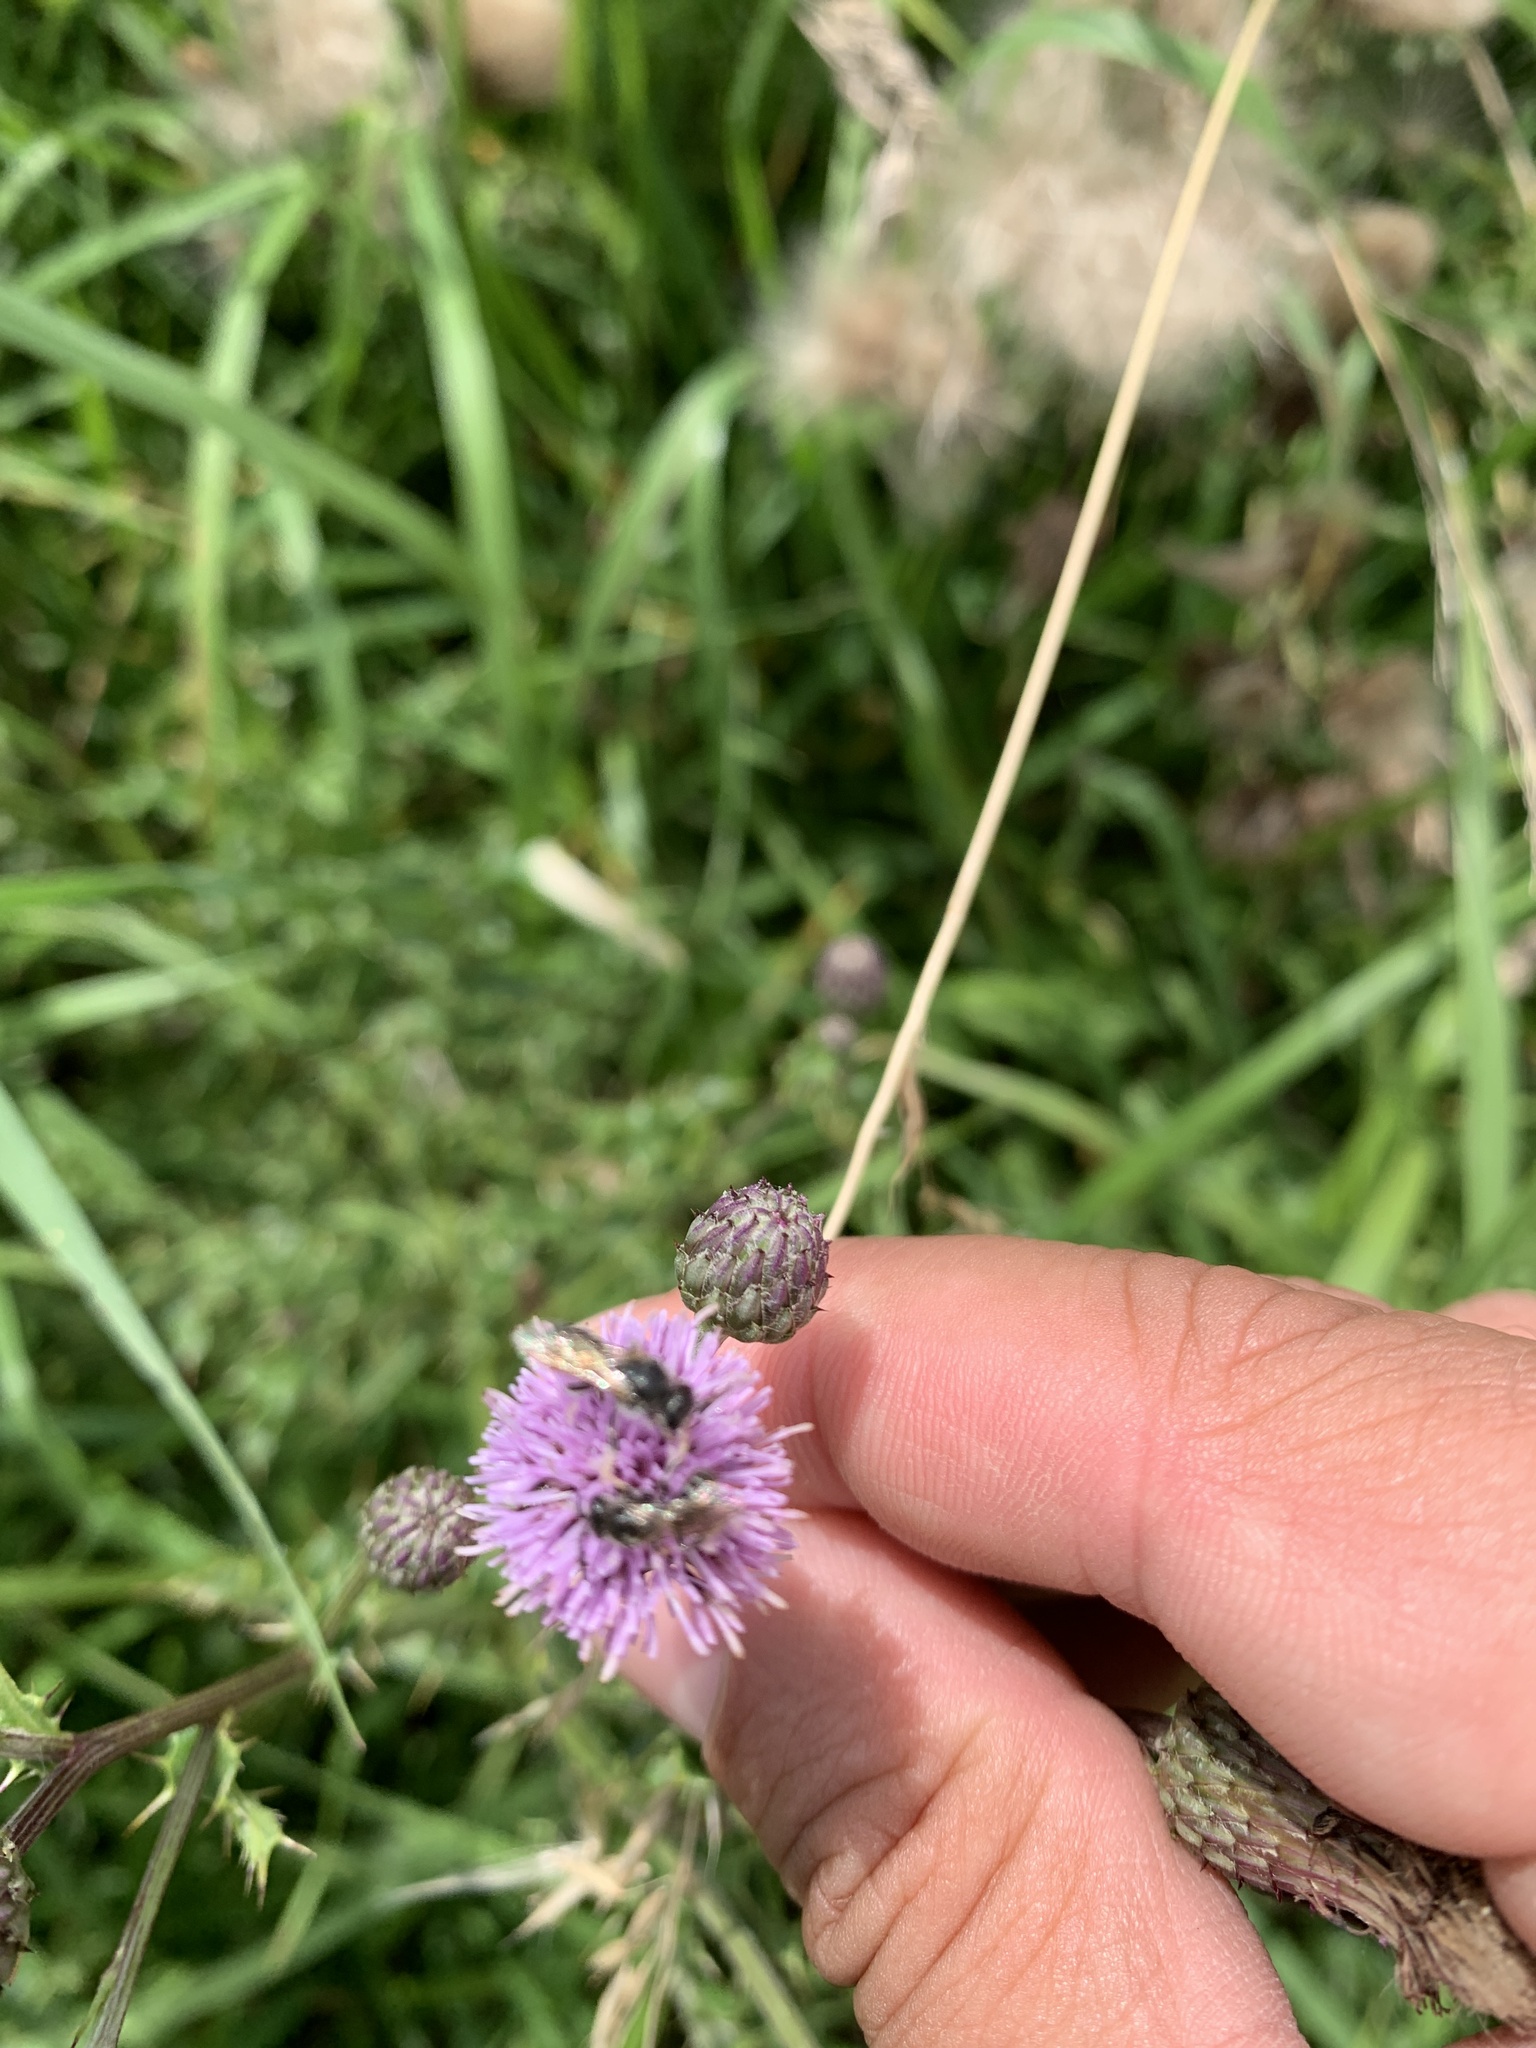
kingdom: Plantae
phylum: Tracheophyta
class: Magnoliopsida
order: Asterales
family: Asteraceae
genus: Cirsium
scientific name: Cirsium arvense
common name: Creeping thistle
